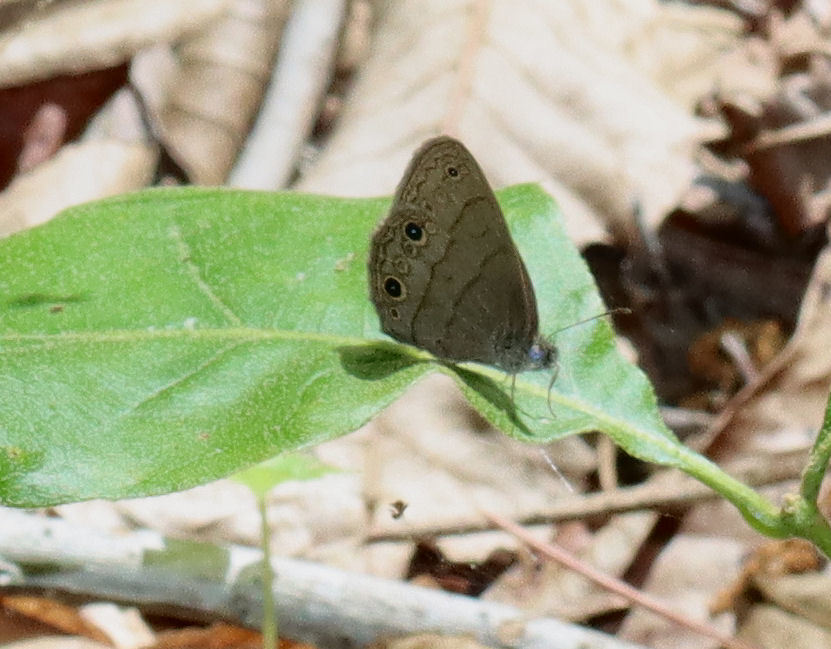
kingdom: Animalia
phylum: Arthropoda
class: Insecta
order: Lepidoptera
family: Nymphalidae
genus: Hermeuptychia
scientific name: Hermeuptychia hermes
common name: Hermes satyr
